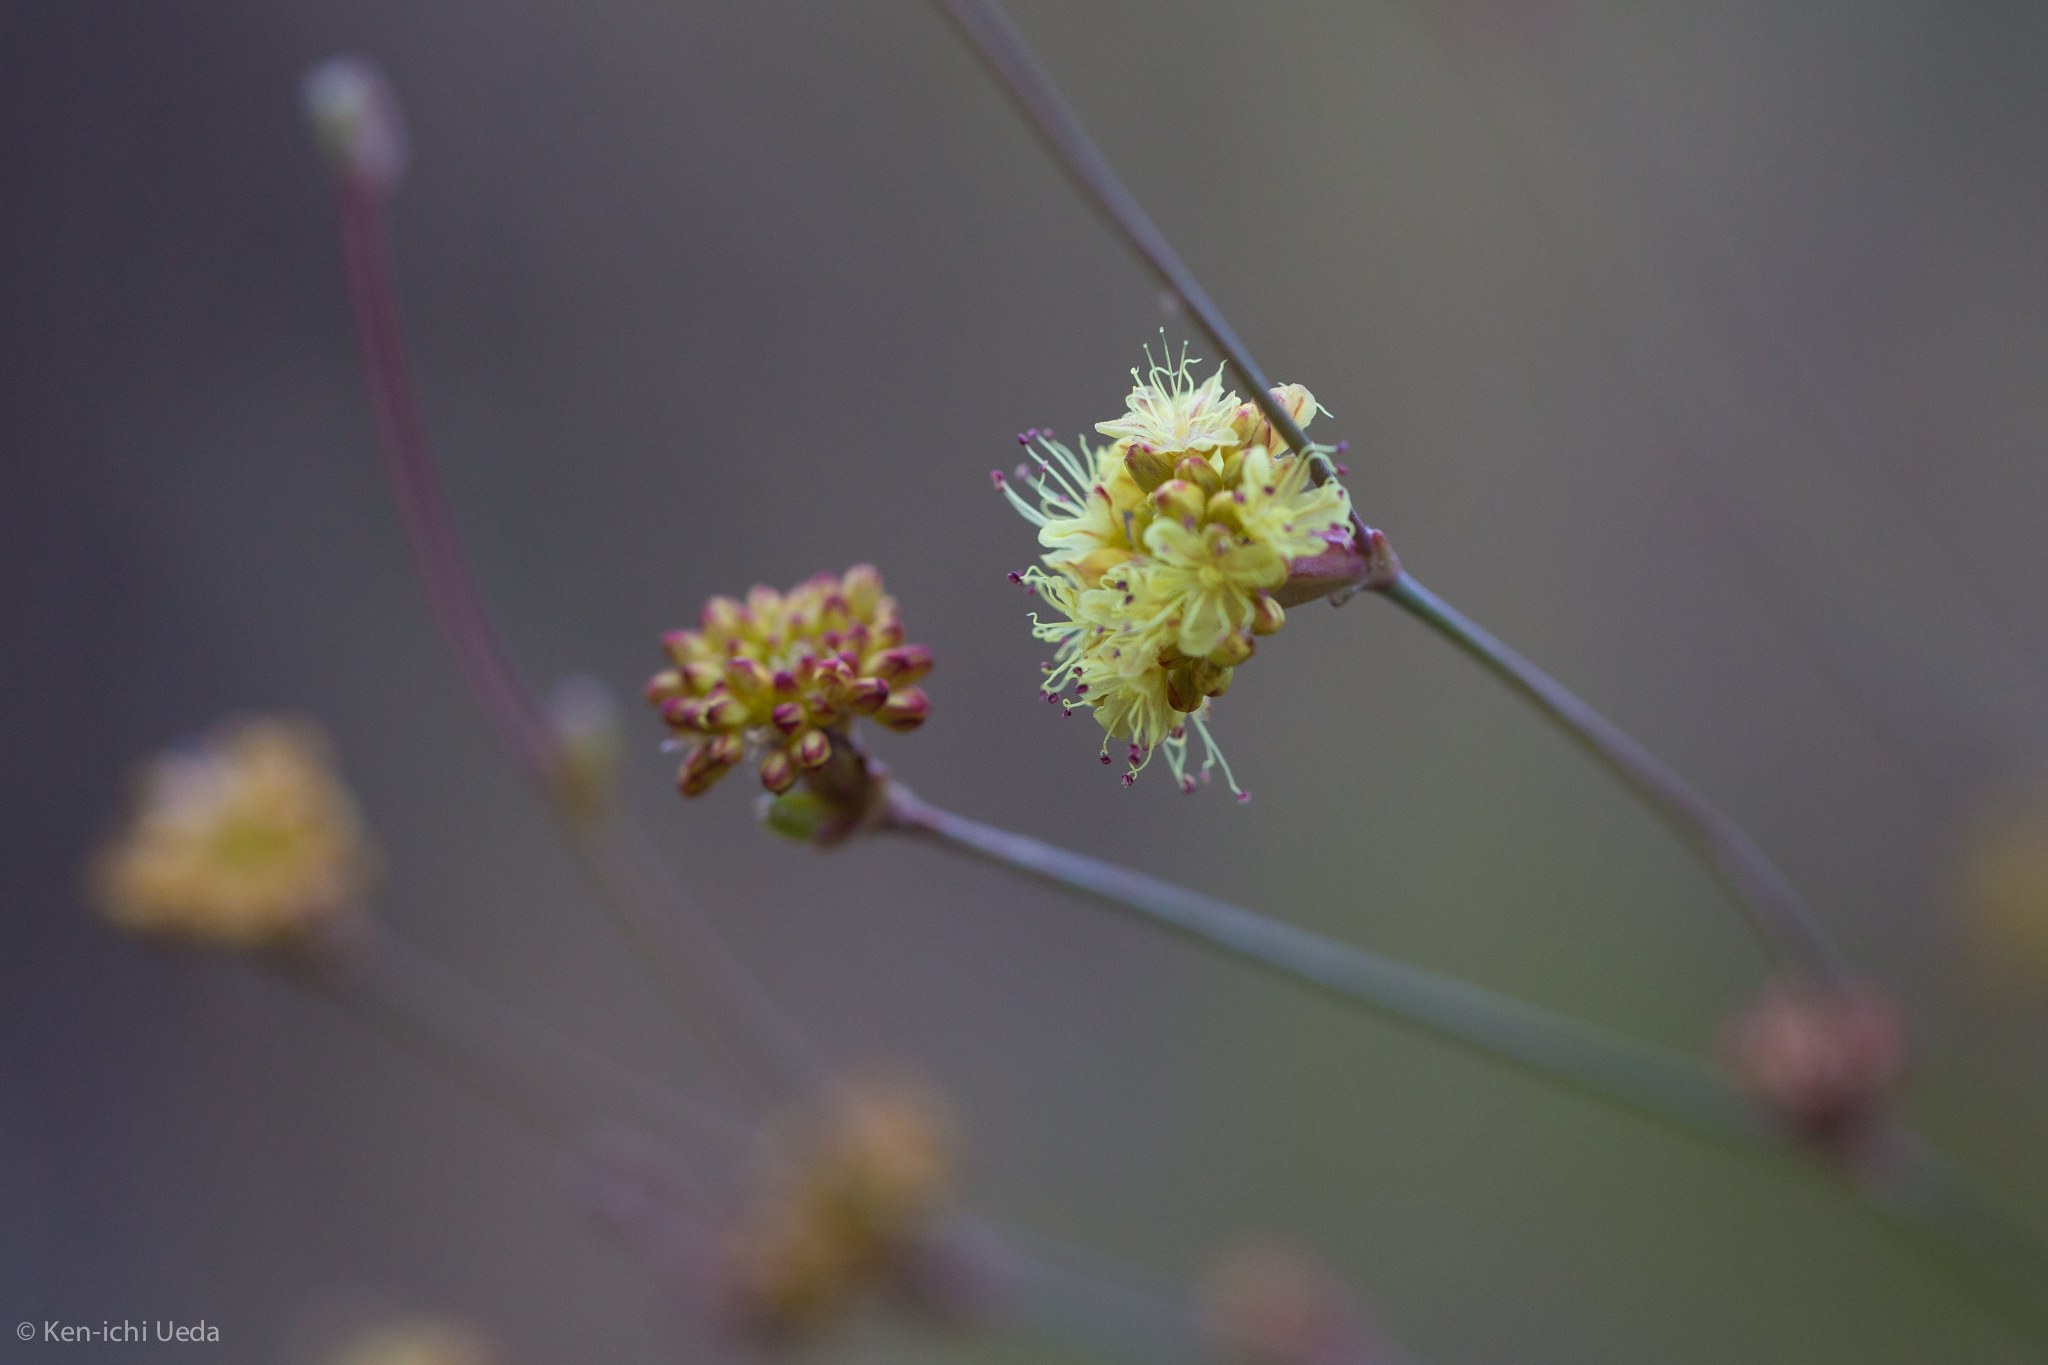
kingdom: Plantae
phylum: Tracheophyta
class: Magnoliopsida
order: Caryophyllales
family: Polygonaceae
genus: Eriogonum
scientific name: Eriogonum nudum
